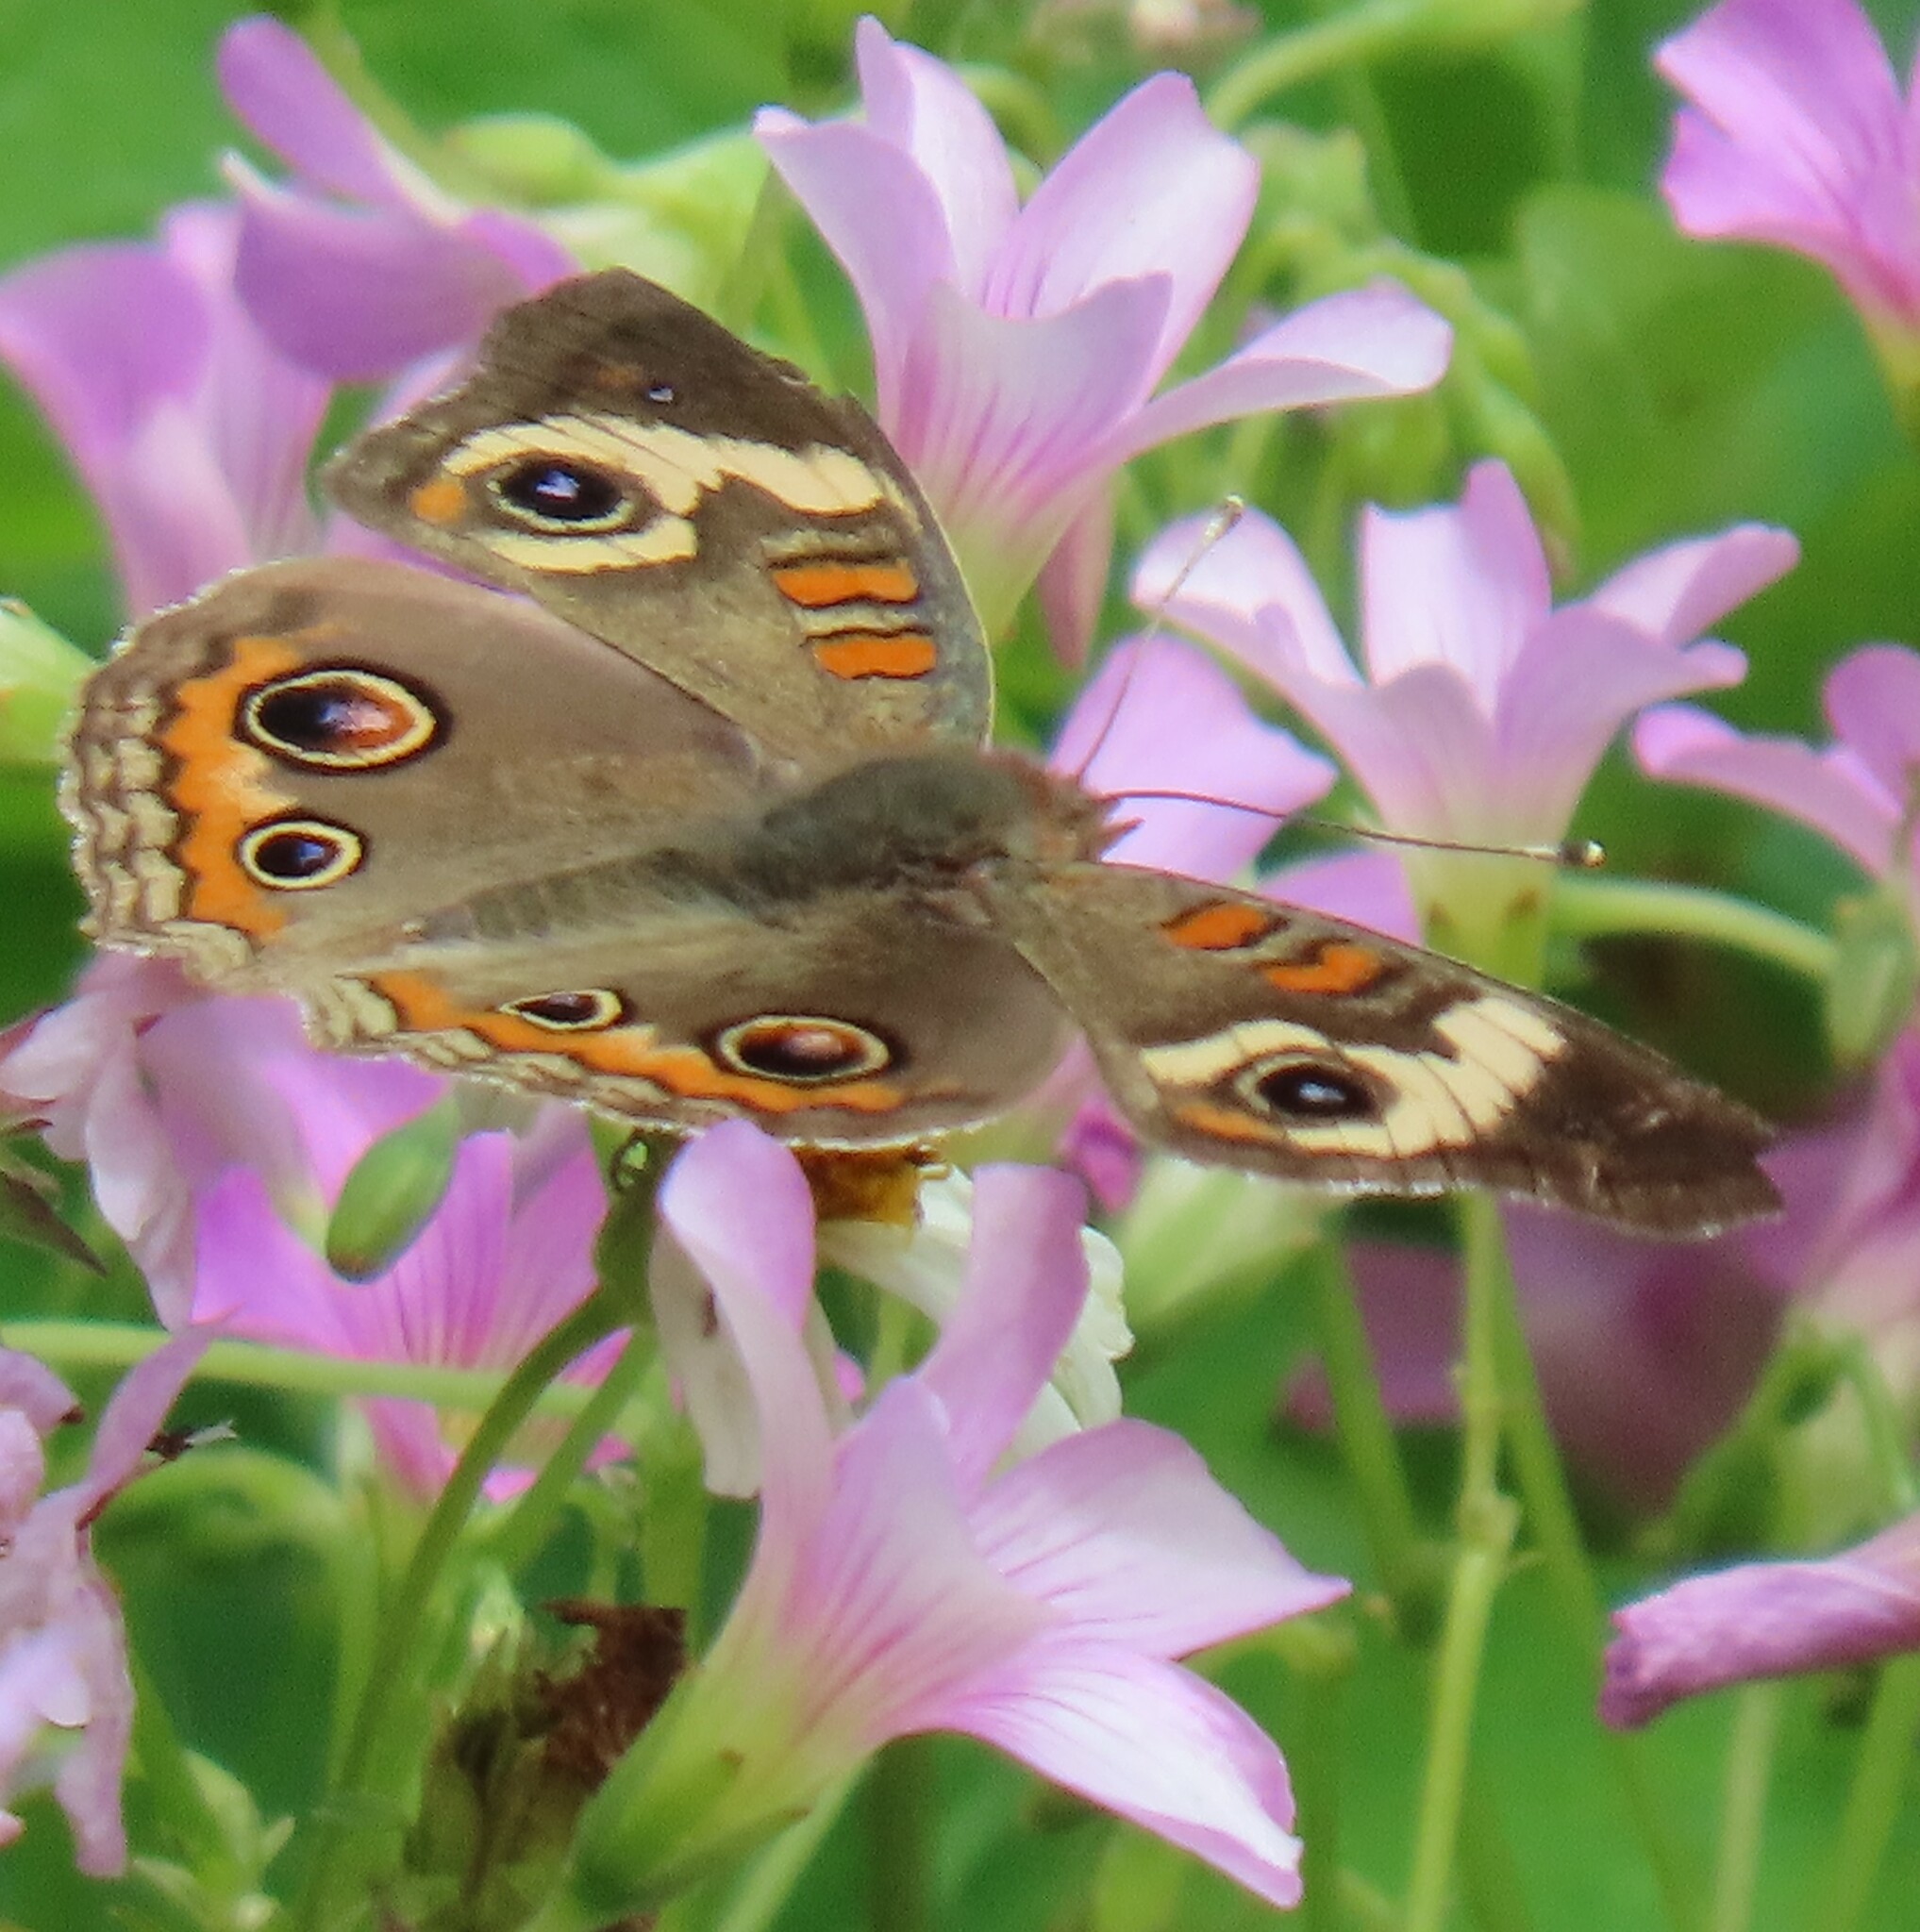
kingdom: Animalia
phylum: Arthropoda
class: Insecta
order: Lepidoptera
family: Nymphalidae
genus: Junonia
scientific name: Junonia coenia
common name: Common buckeye
